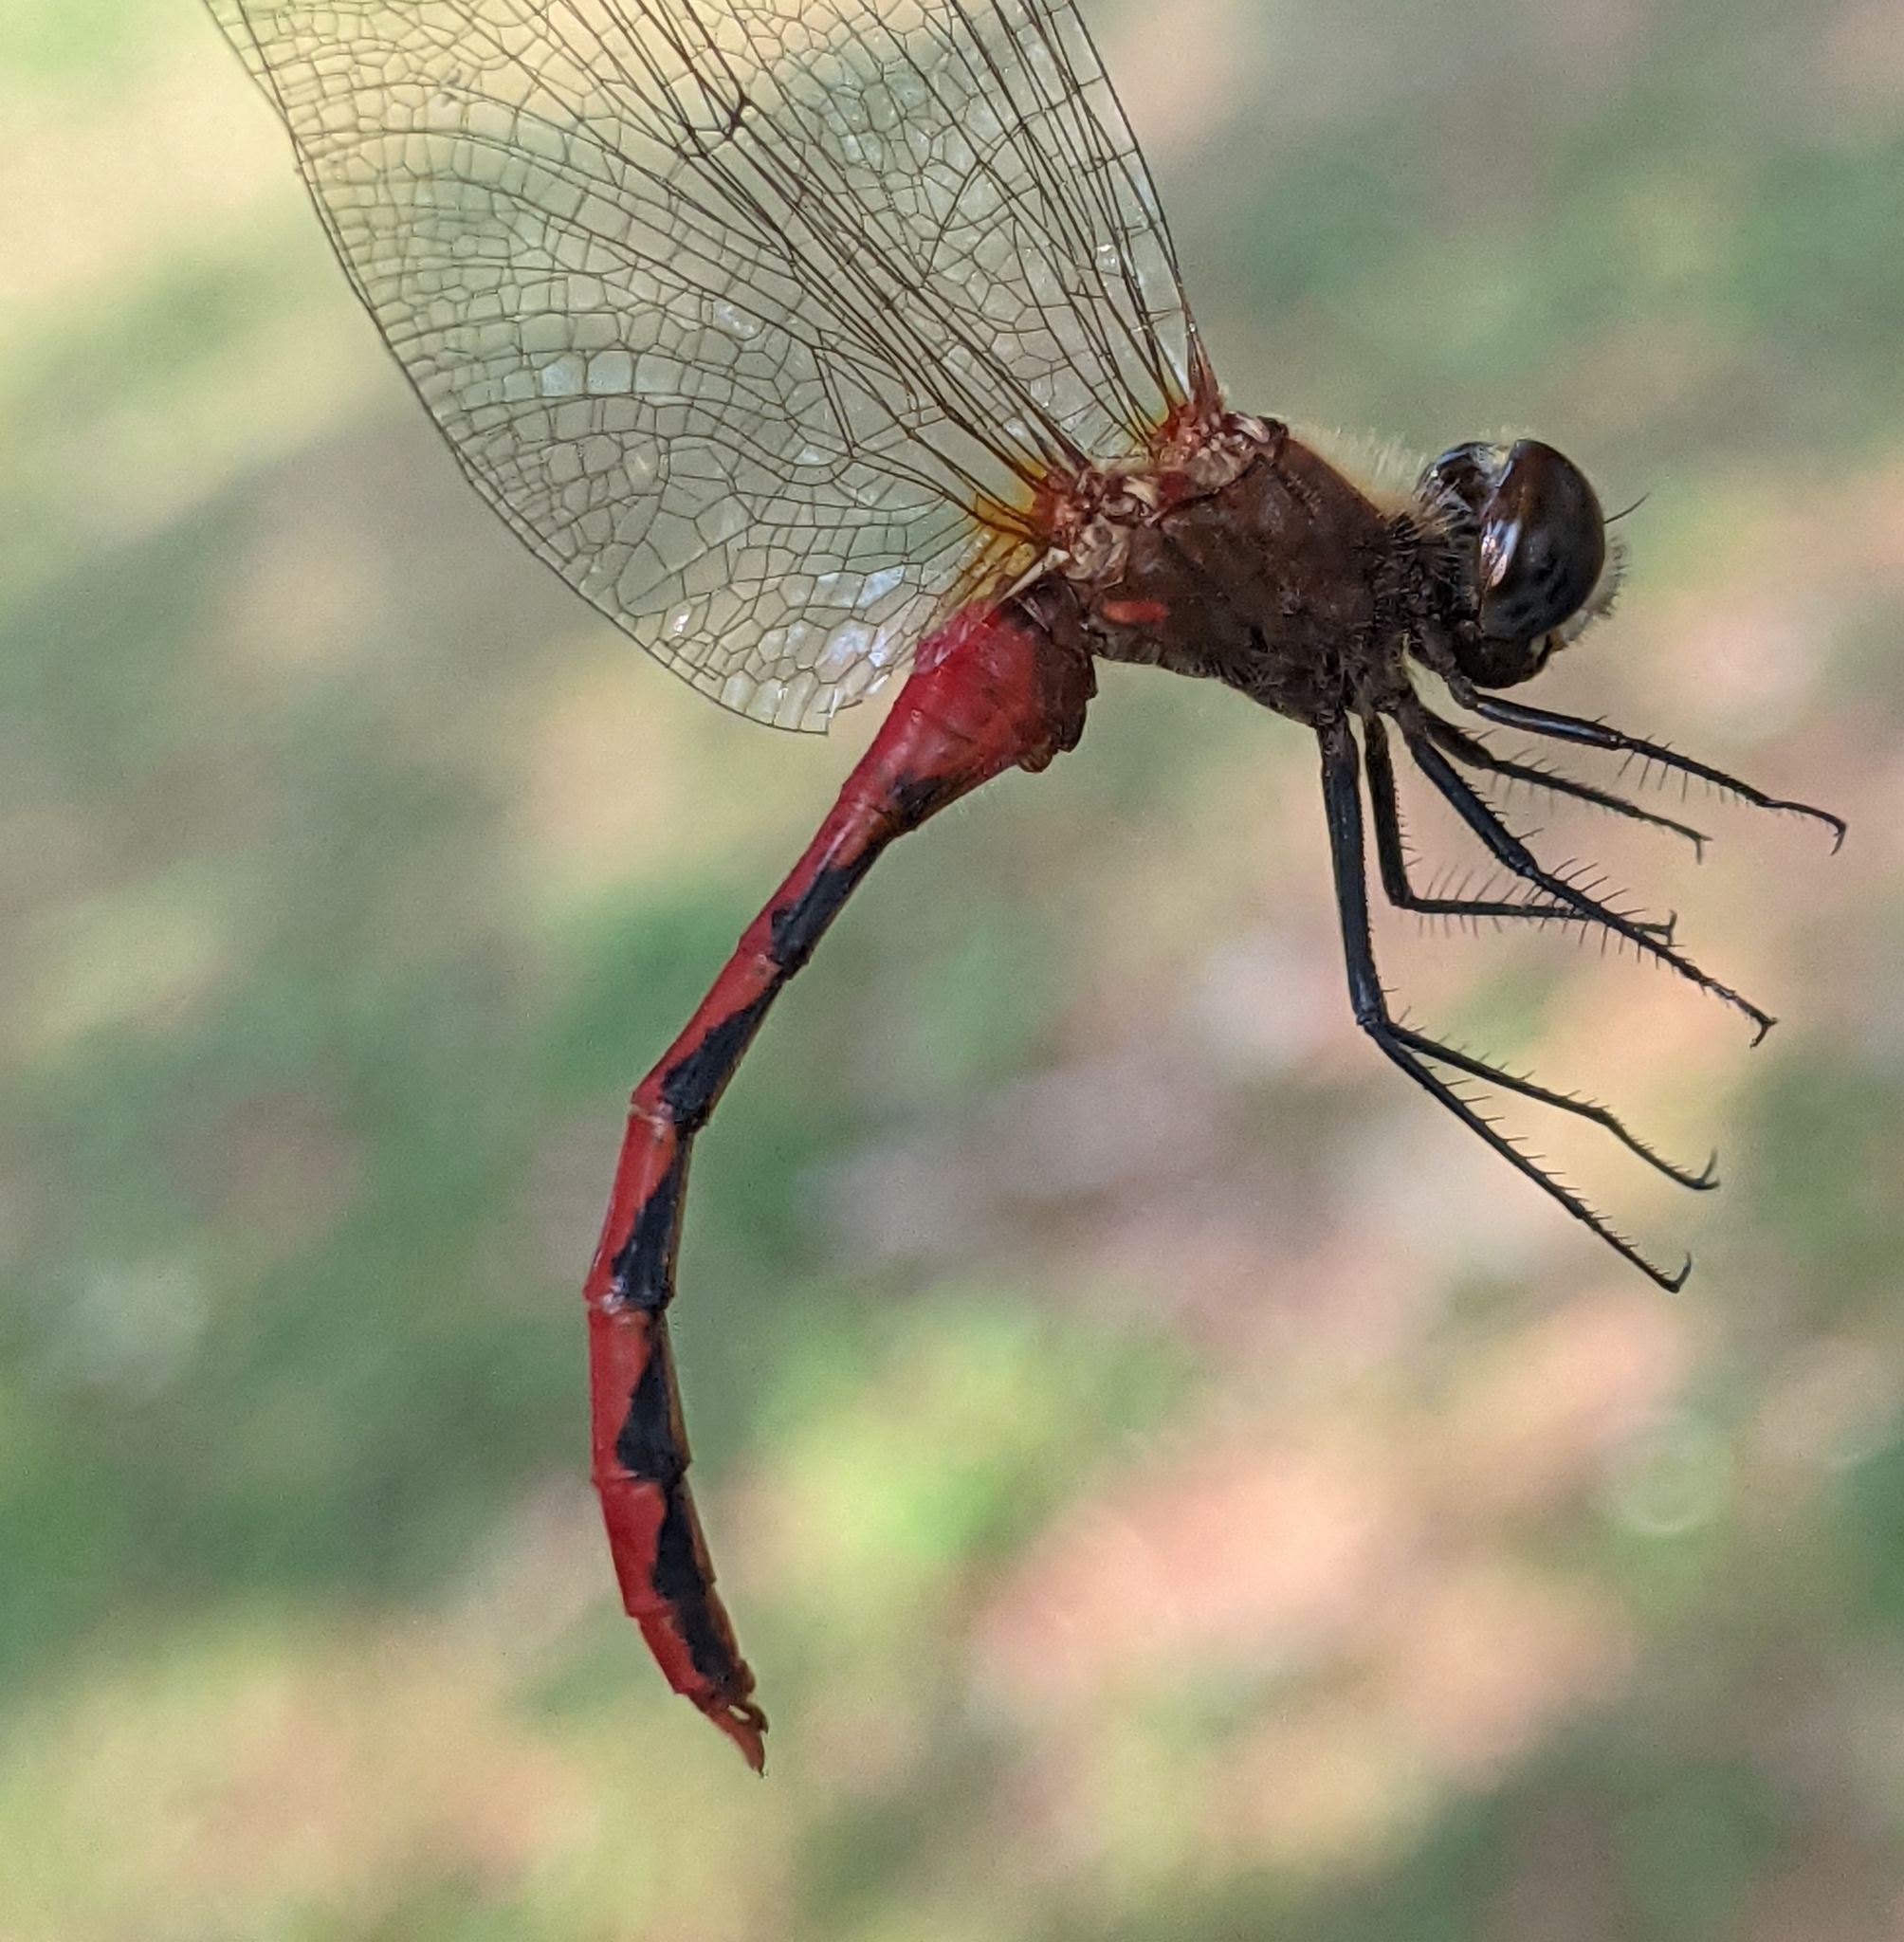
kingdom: Animalia
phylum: Arthropoda
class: Insecta
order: Odonata
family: Libellulidae
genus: Sympetrum
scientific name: Sympetrum obtrusum
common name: White-faced meadowhawk
